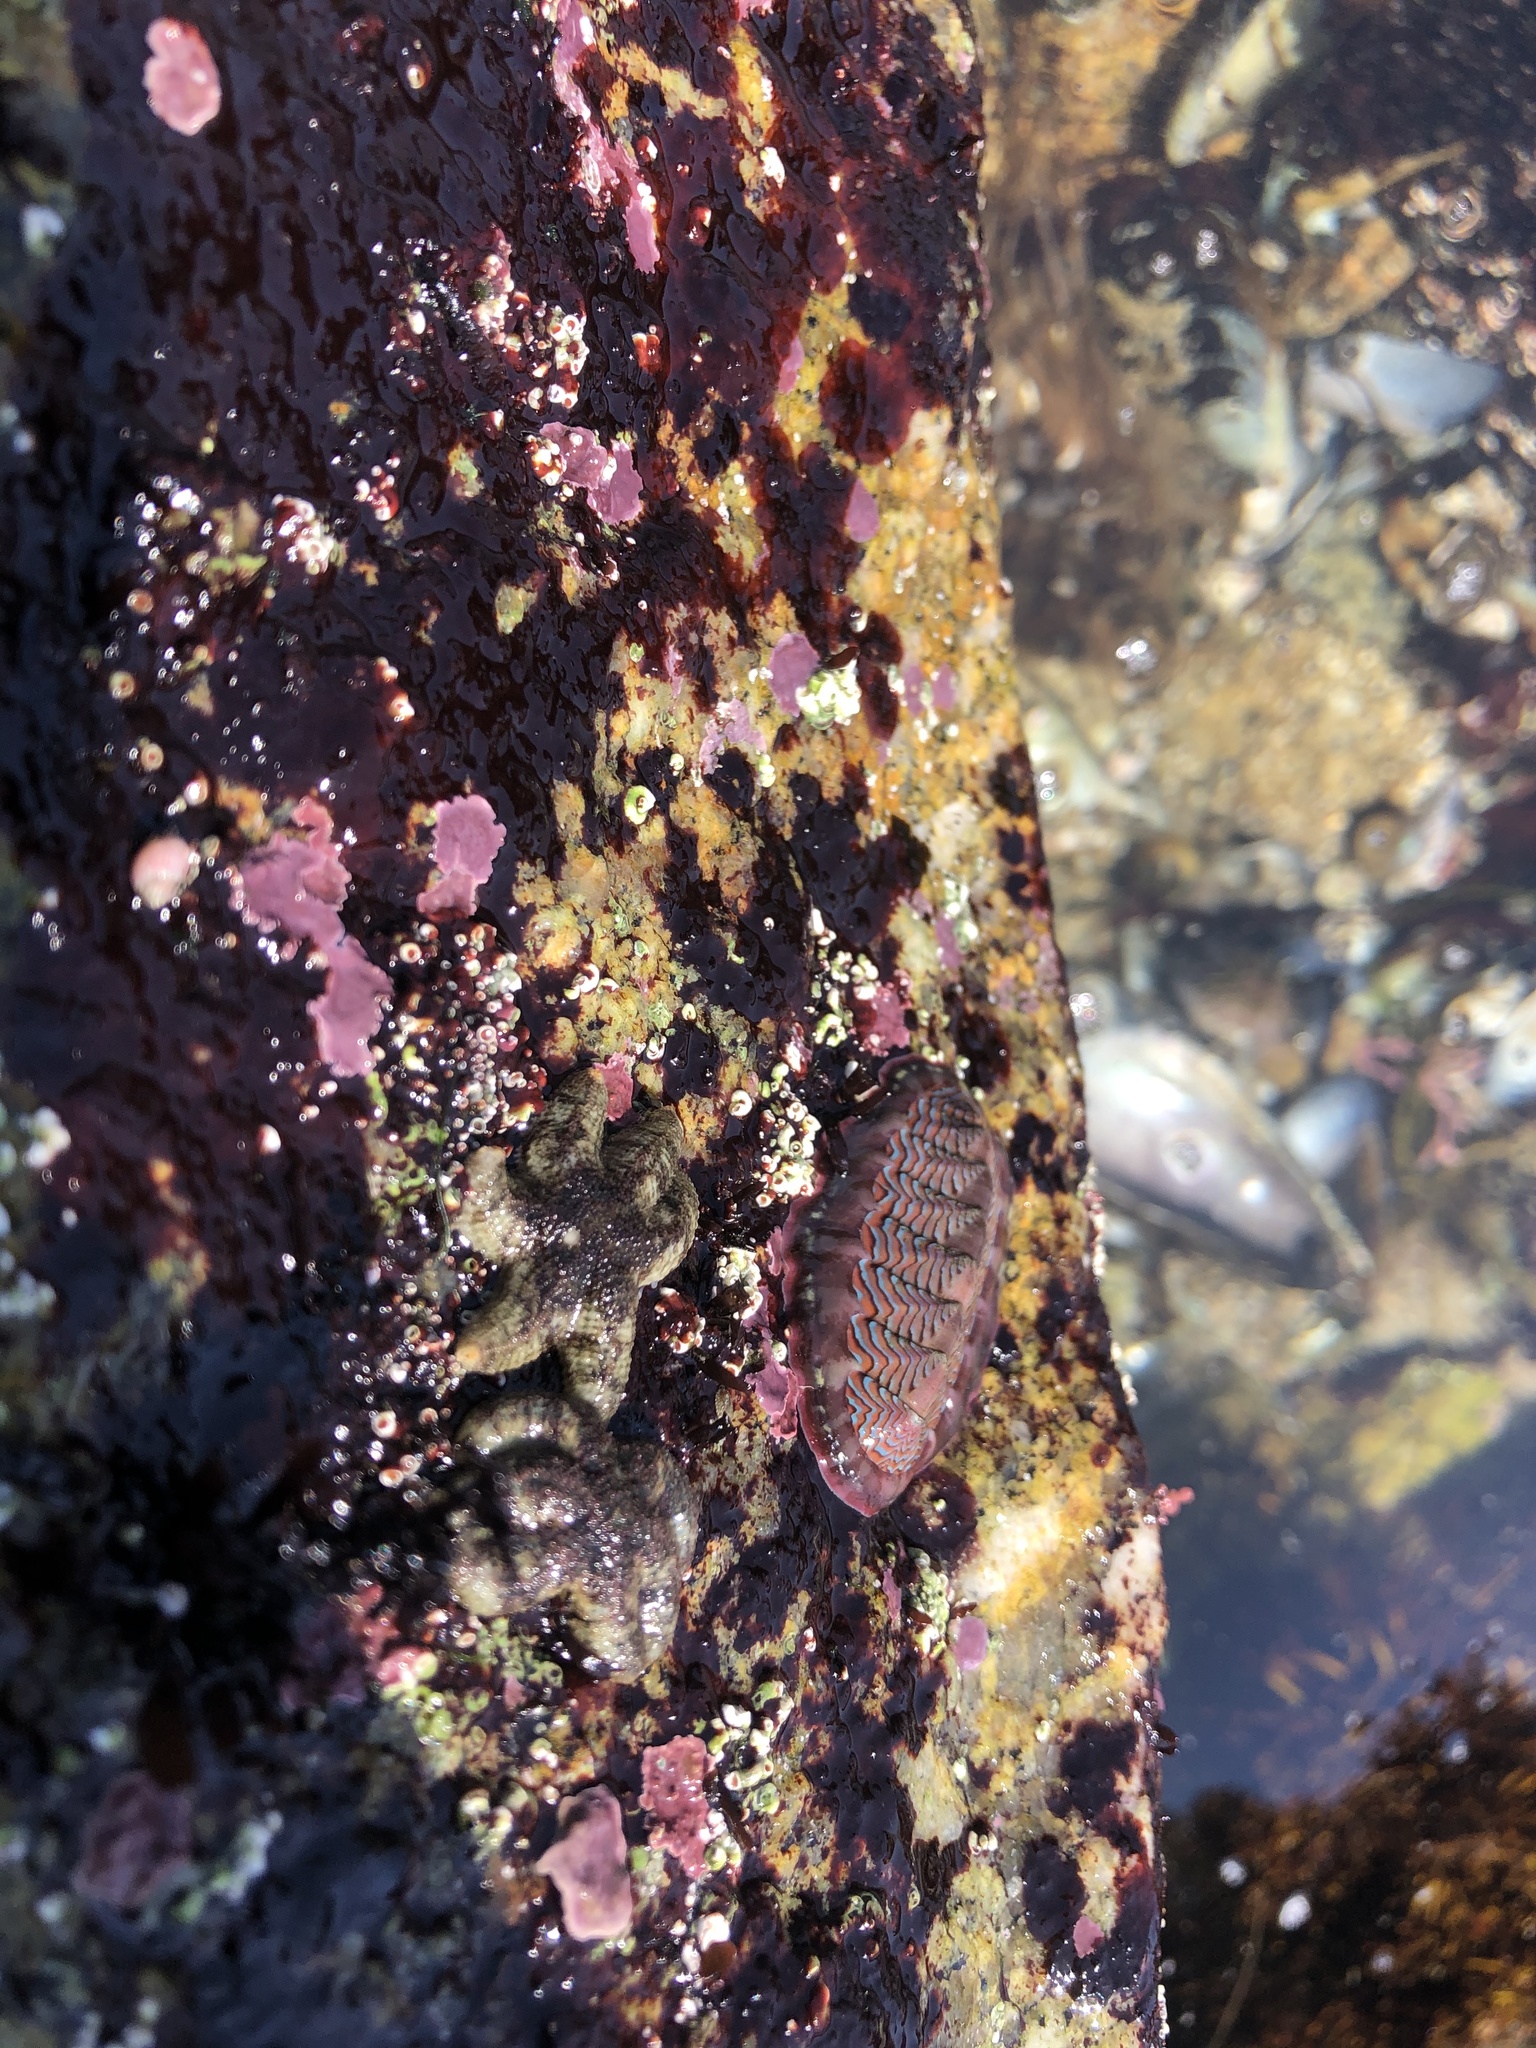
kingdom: Animalia
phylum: Mollusca
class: Polyplacophora
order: Chitonida
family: Tonicellidae
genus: Tonicella
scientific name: Tonicella lokii
